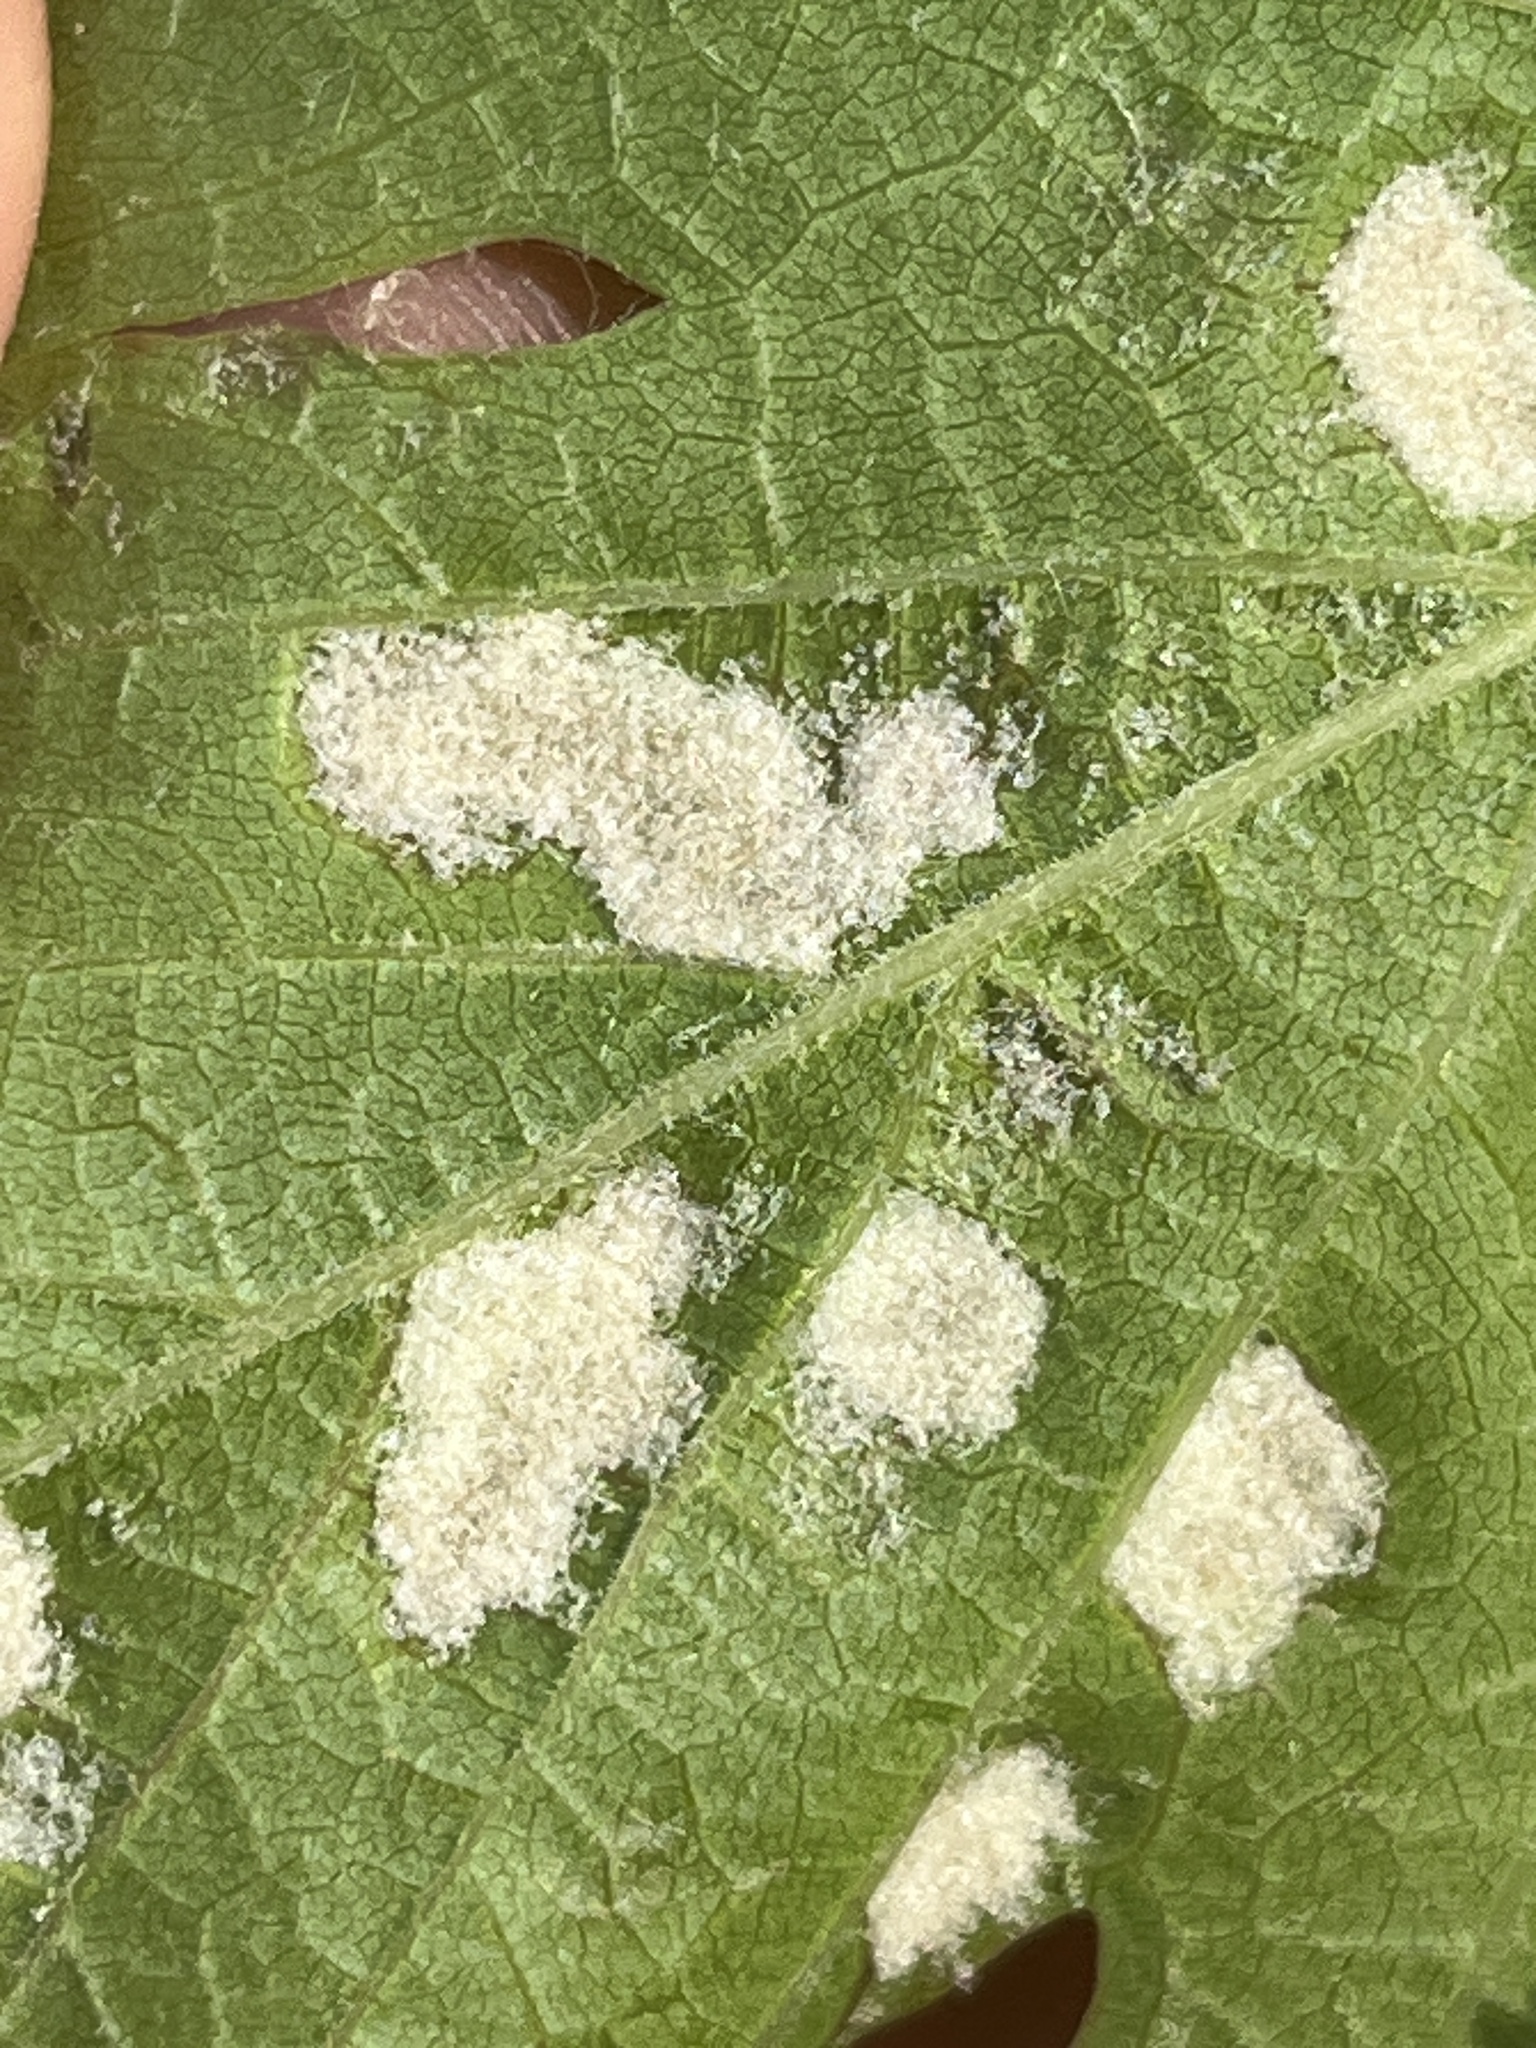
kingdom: Animalia
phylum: Arthropoda
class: Arachnida
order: Trombidiformes
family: Eriophyidae
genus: Colomerus
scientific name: Colomerus vitis
